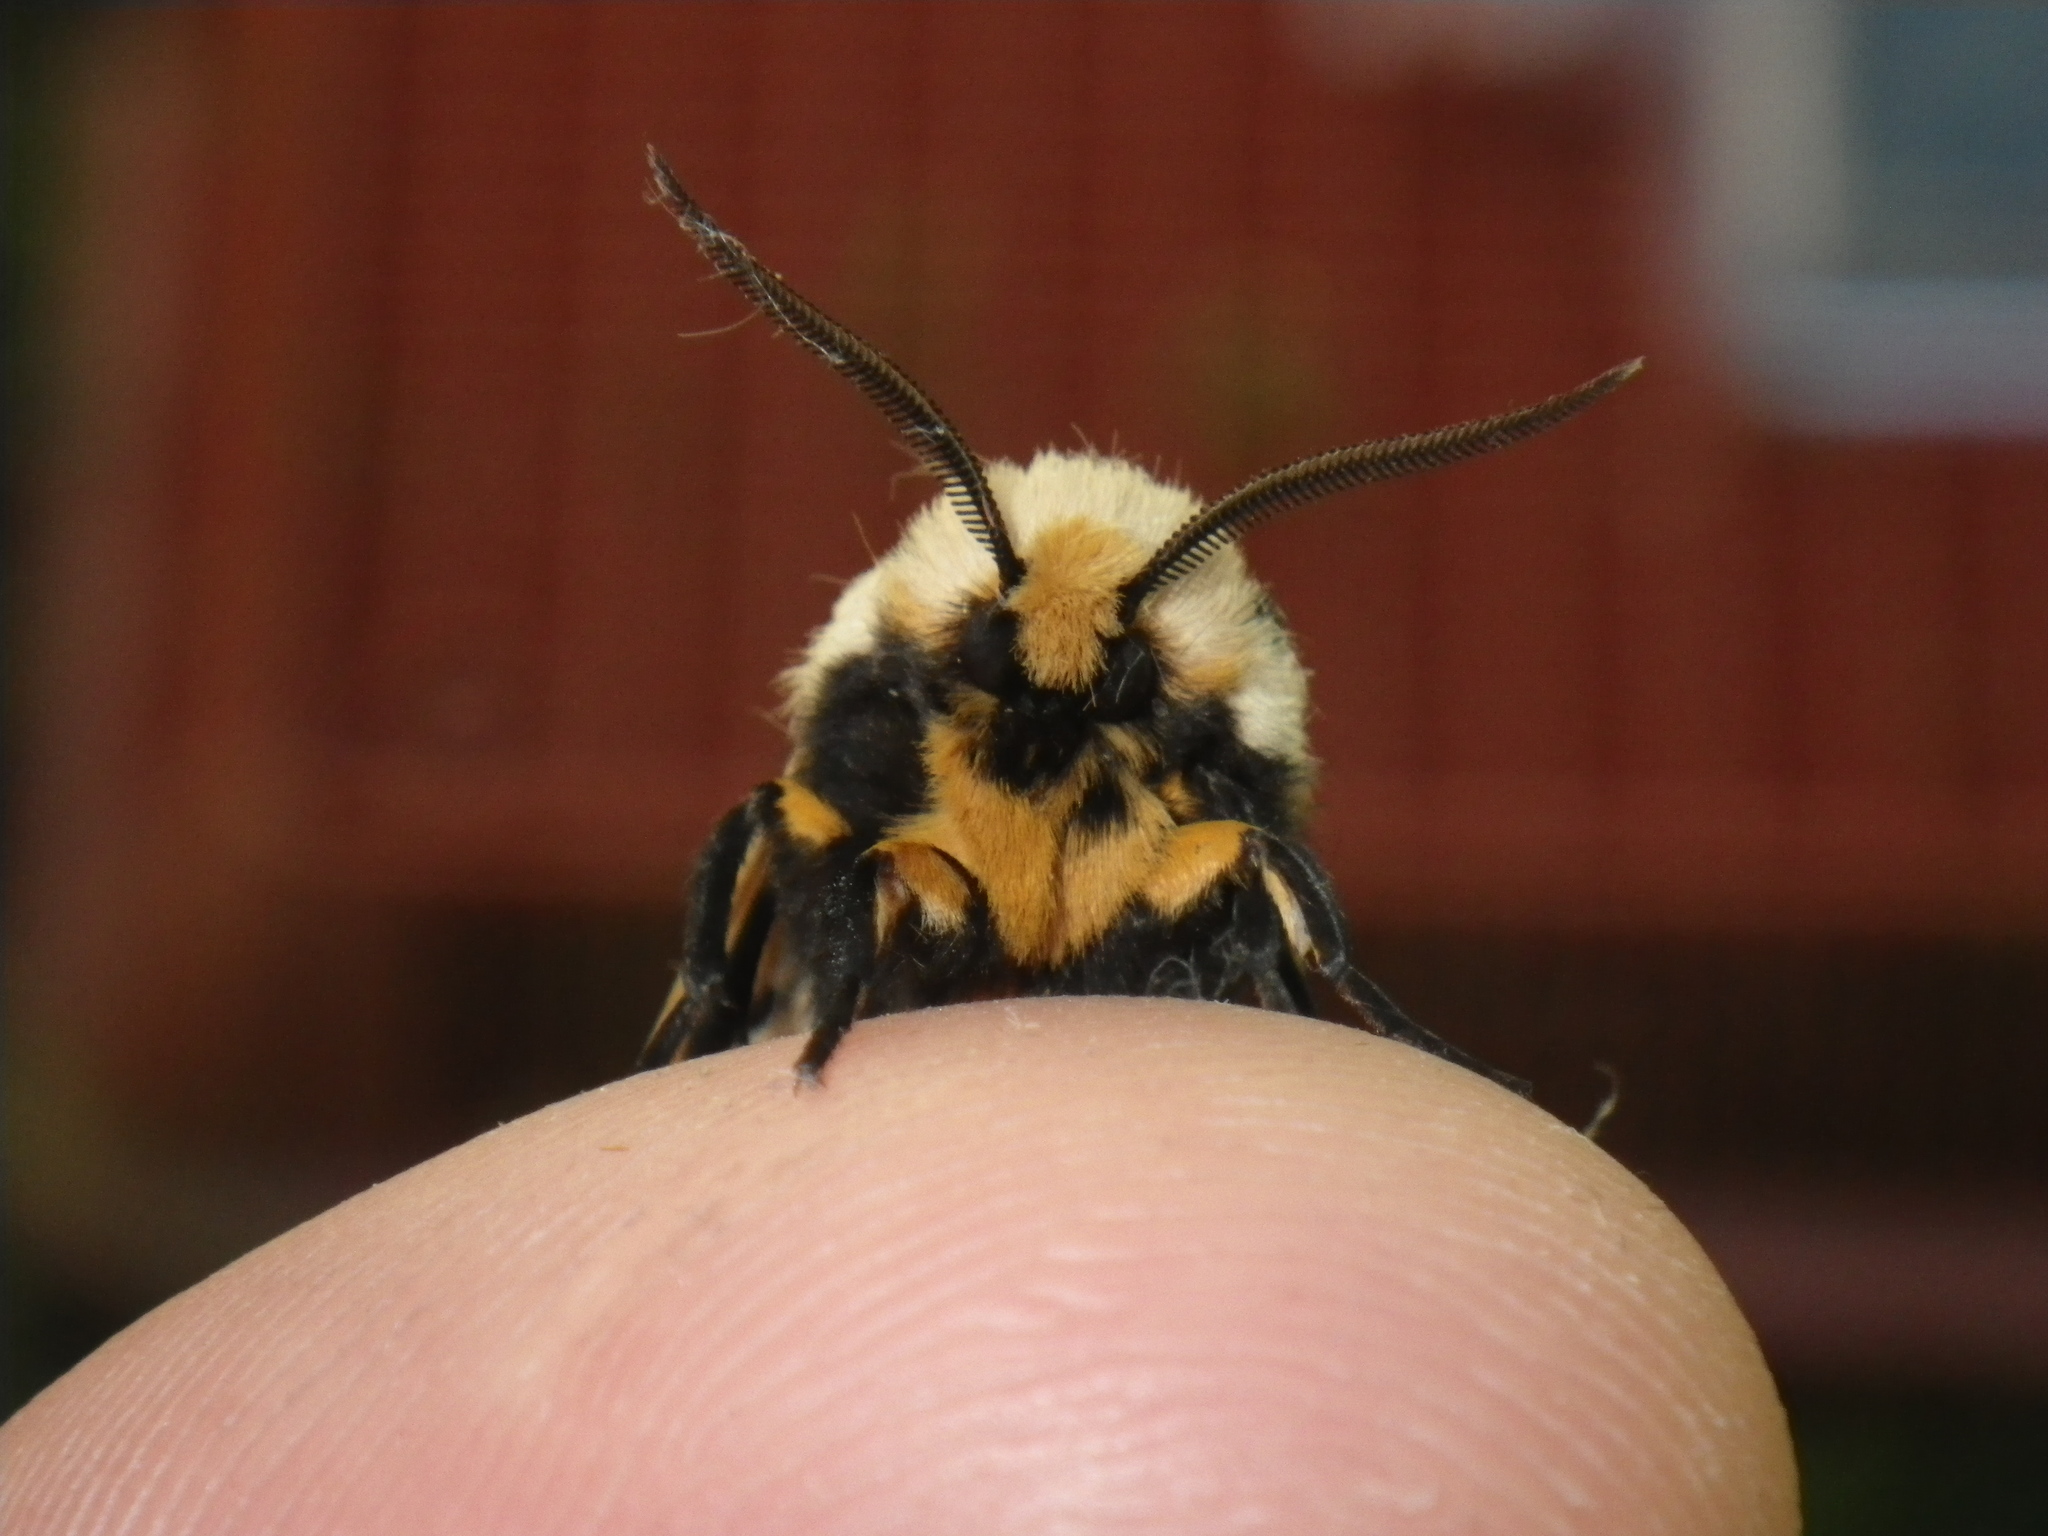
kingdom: Animalia
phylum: Arthropoda
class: Insecta
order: Lepidoptera
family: Erebidae
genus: Apantesis
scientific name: Apantesis
